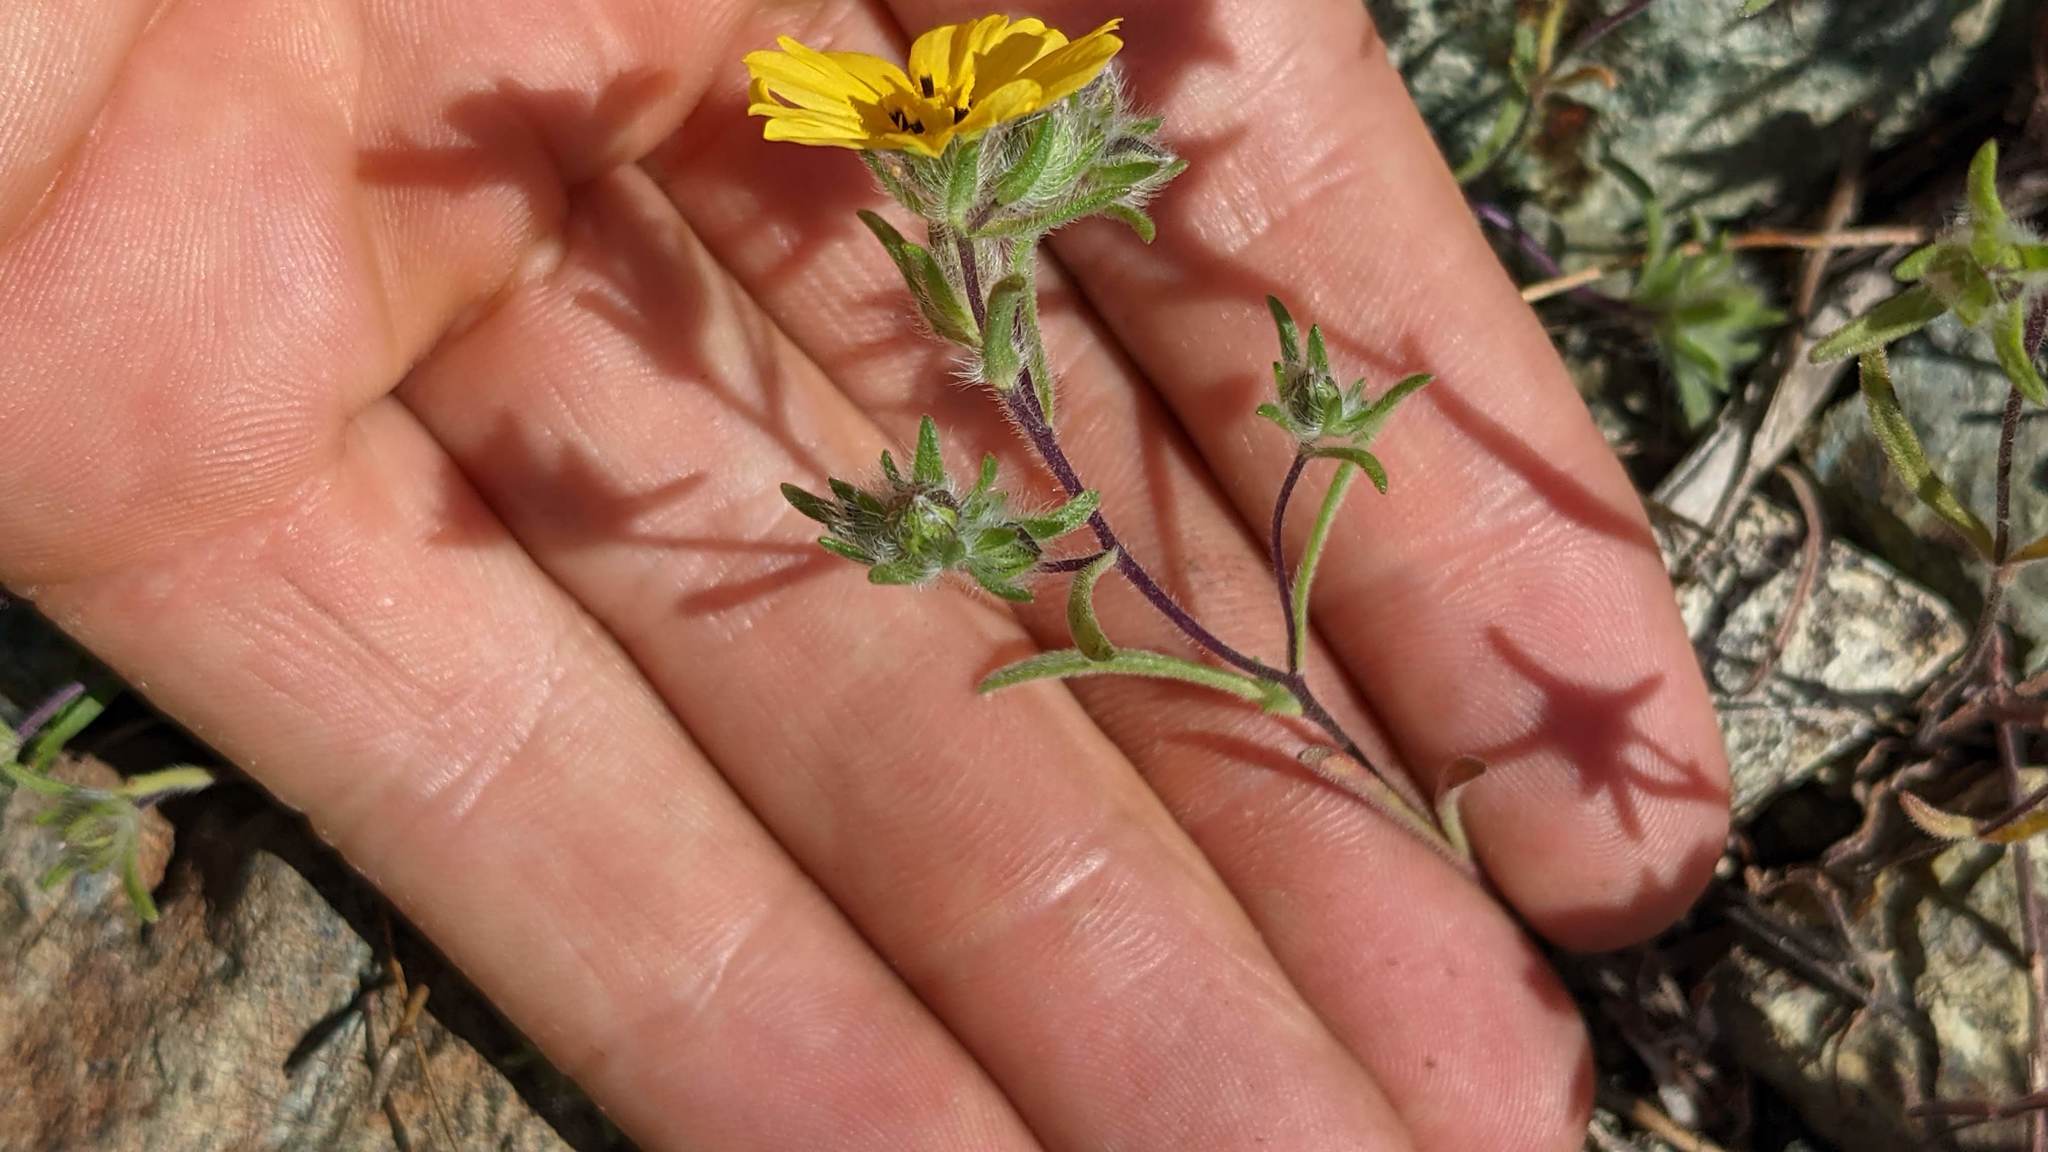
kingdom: Plantae
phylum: Tracheophyta
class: Magnoliopsida
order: Asterales
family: Asteraceae
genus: Lagophylla
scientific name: Lagophylla minor
